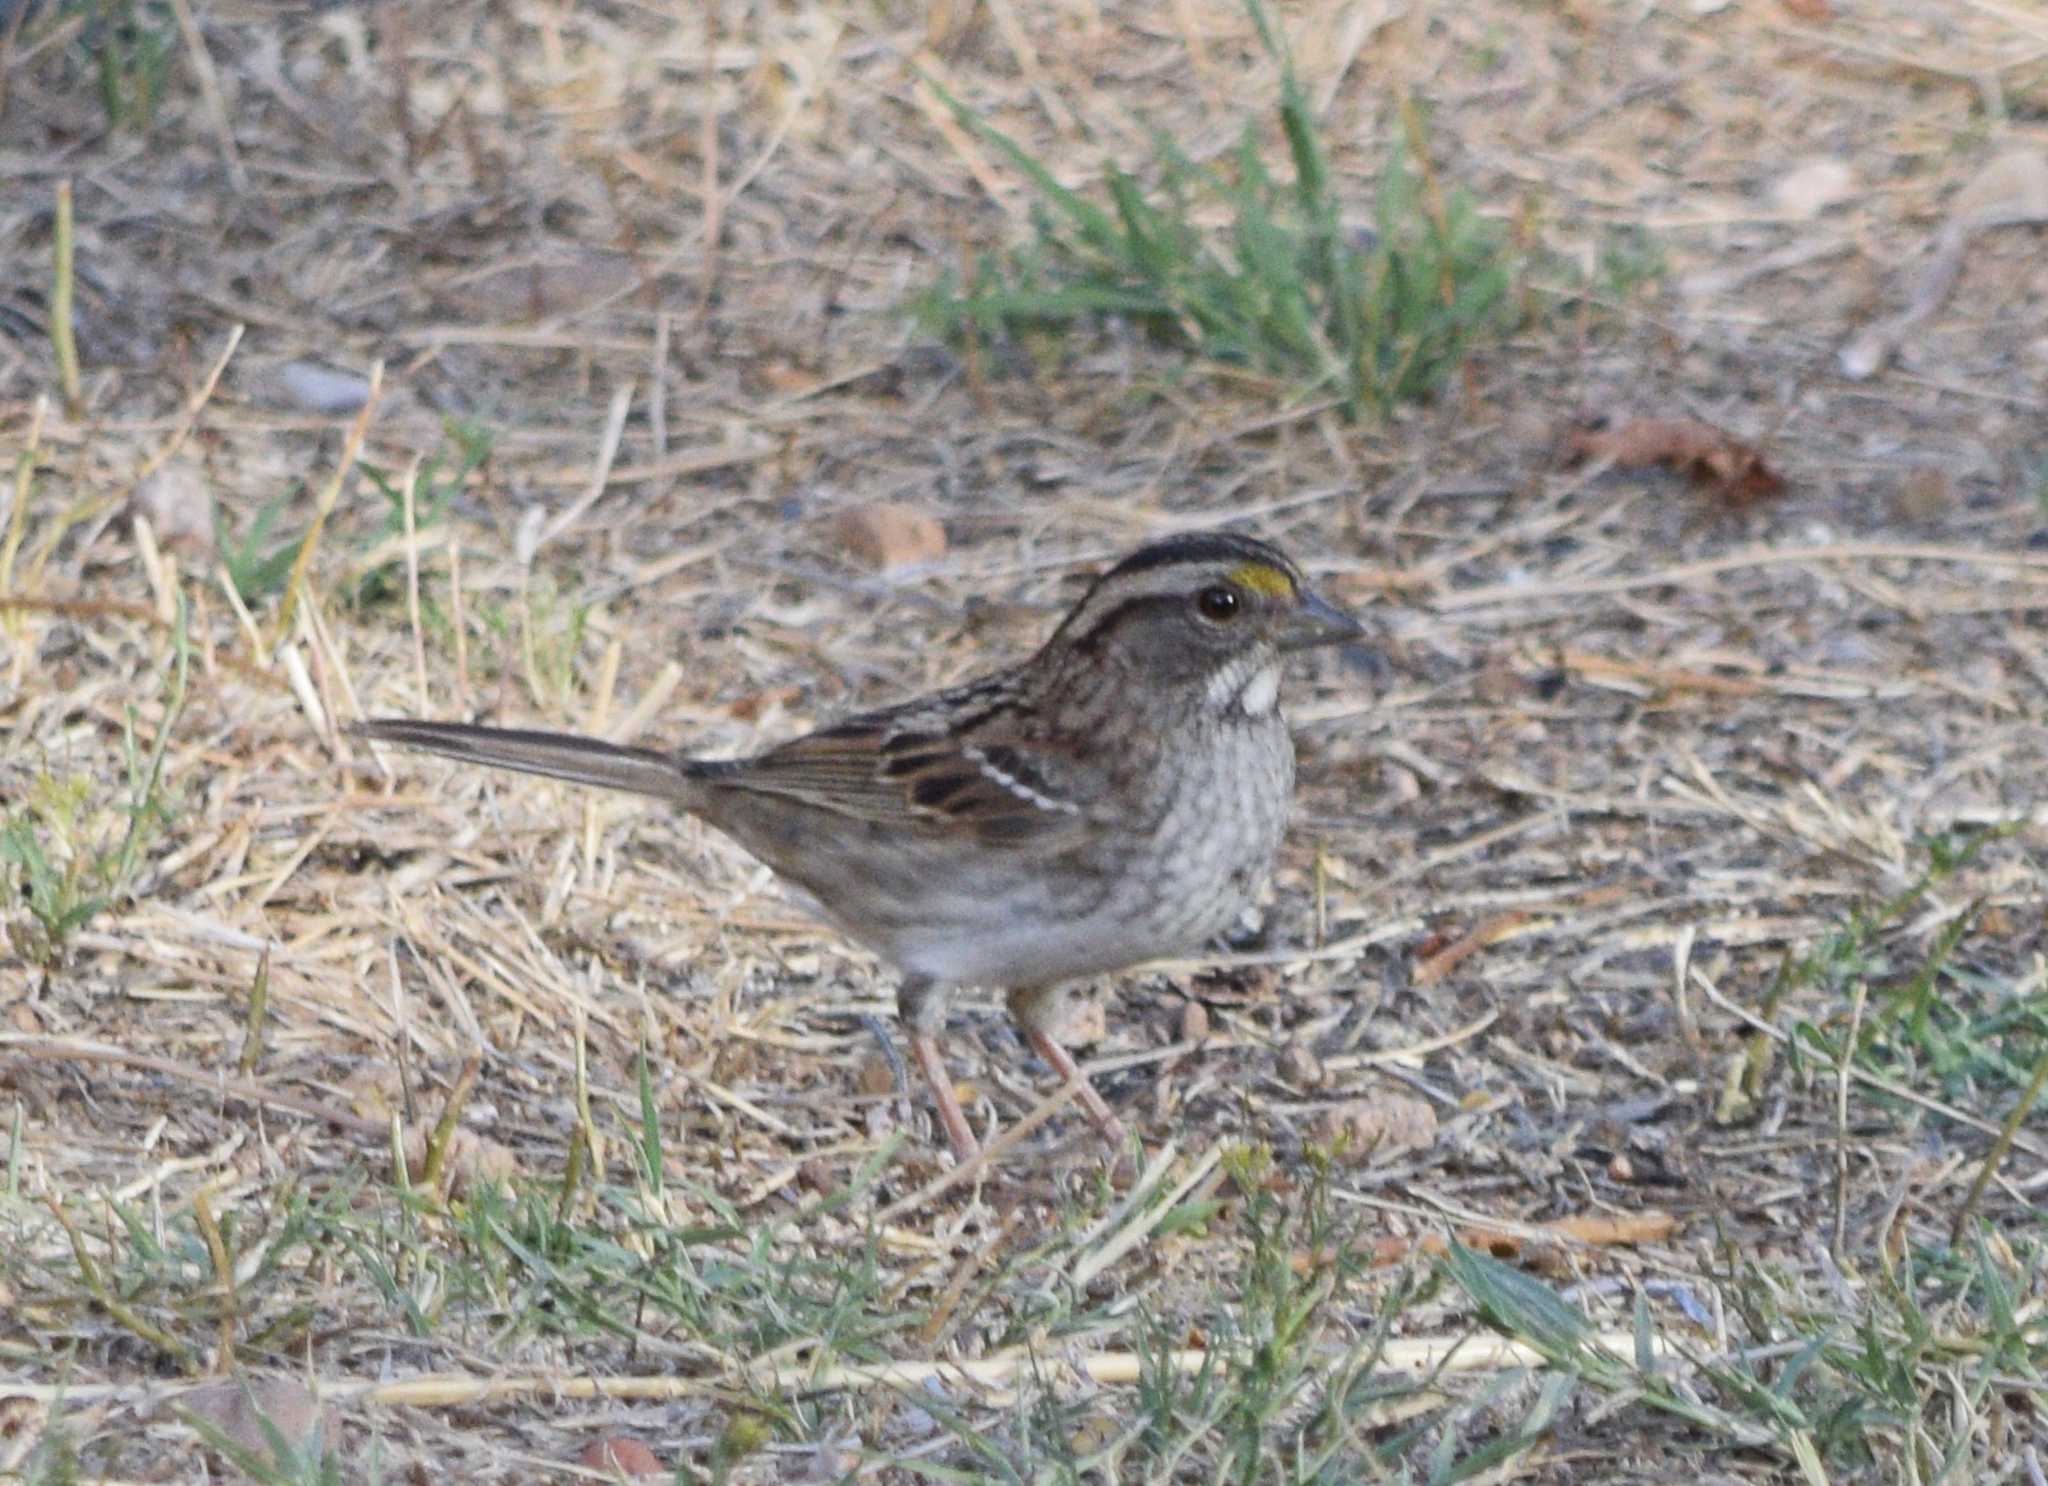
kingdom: Animalia
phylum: Chordata
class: Aves
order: Passeriformes
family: Passerellidae
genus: Zonotrichia
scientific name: Zonotrichia albicollis
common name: White-throated sparrow
